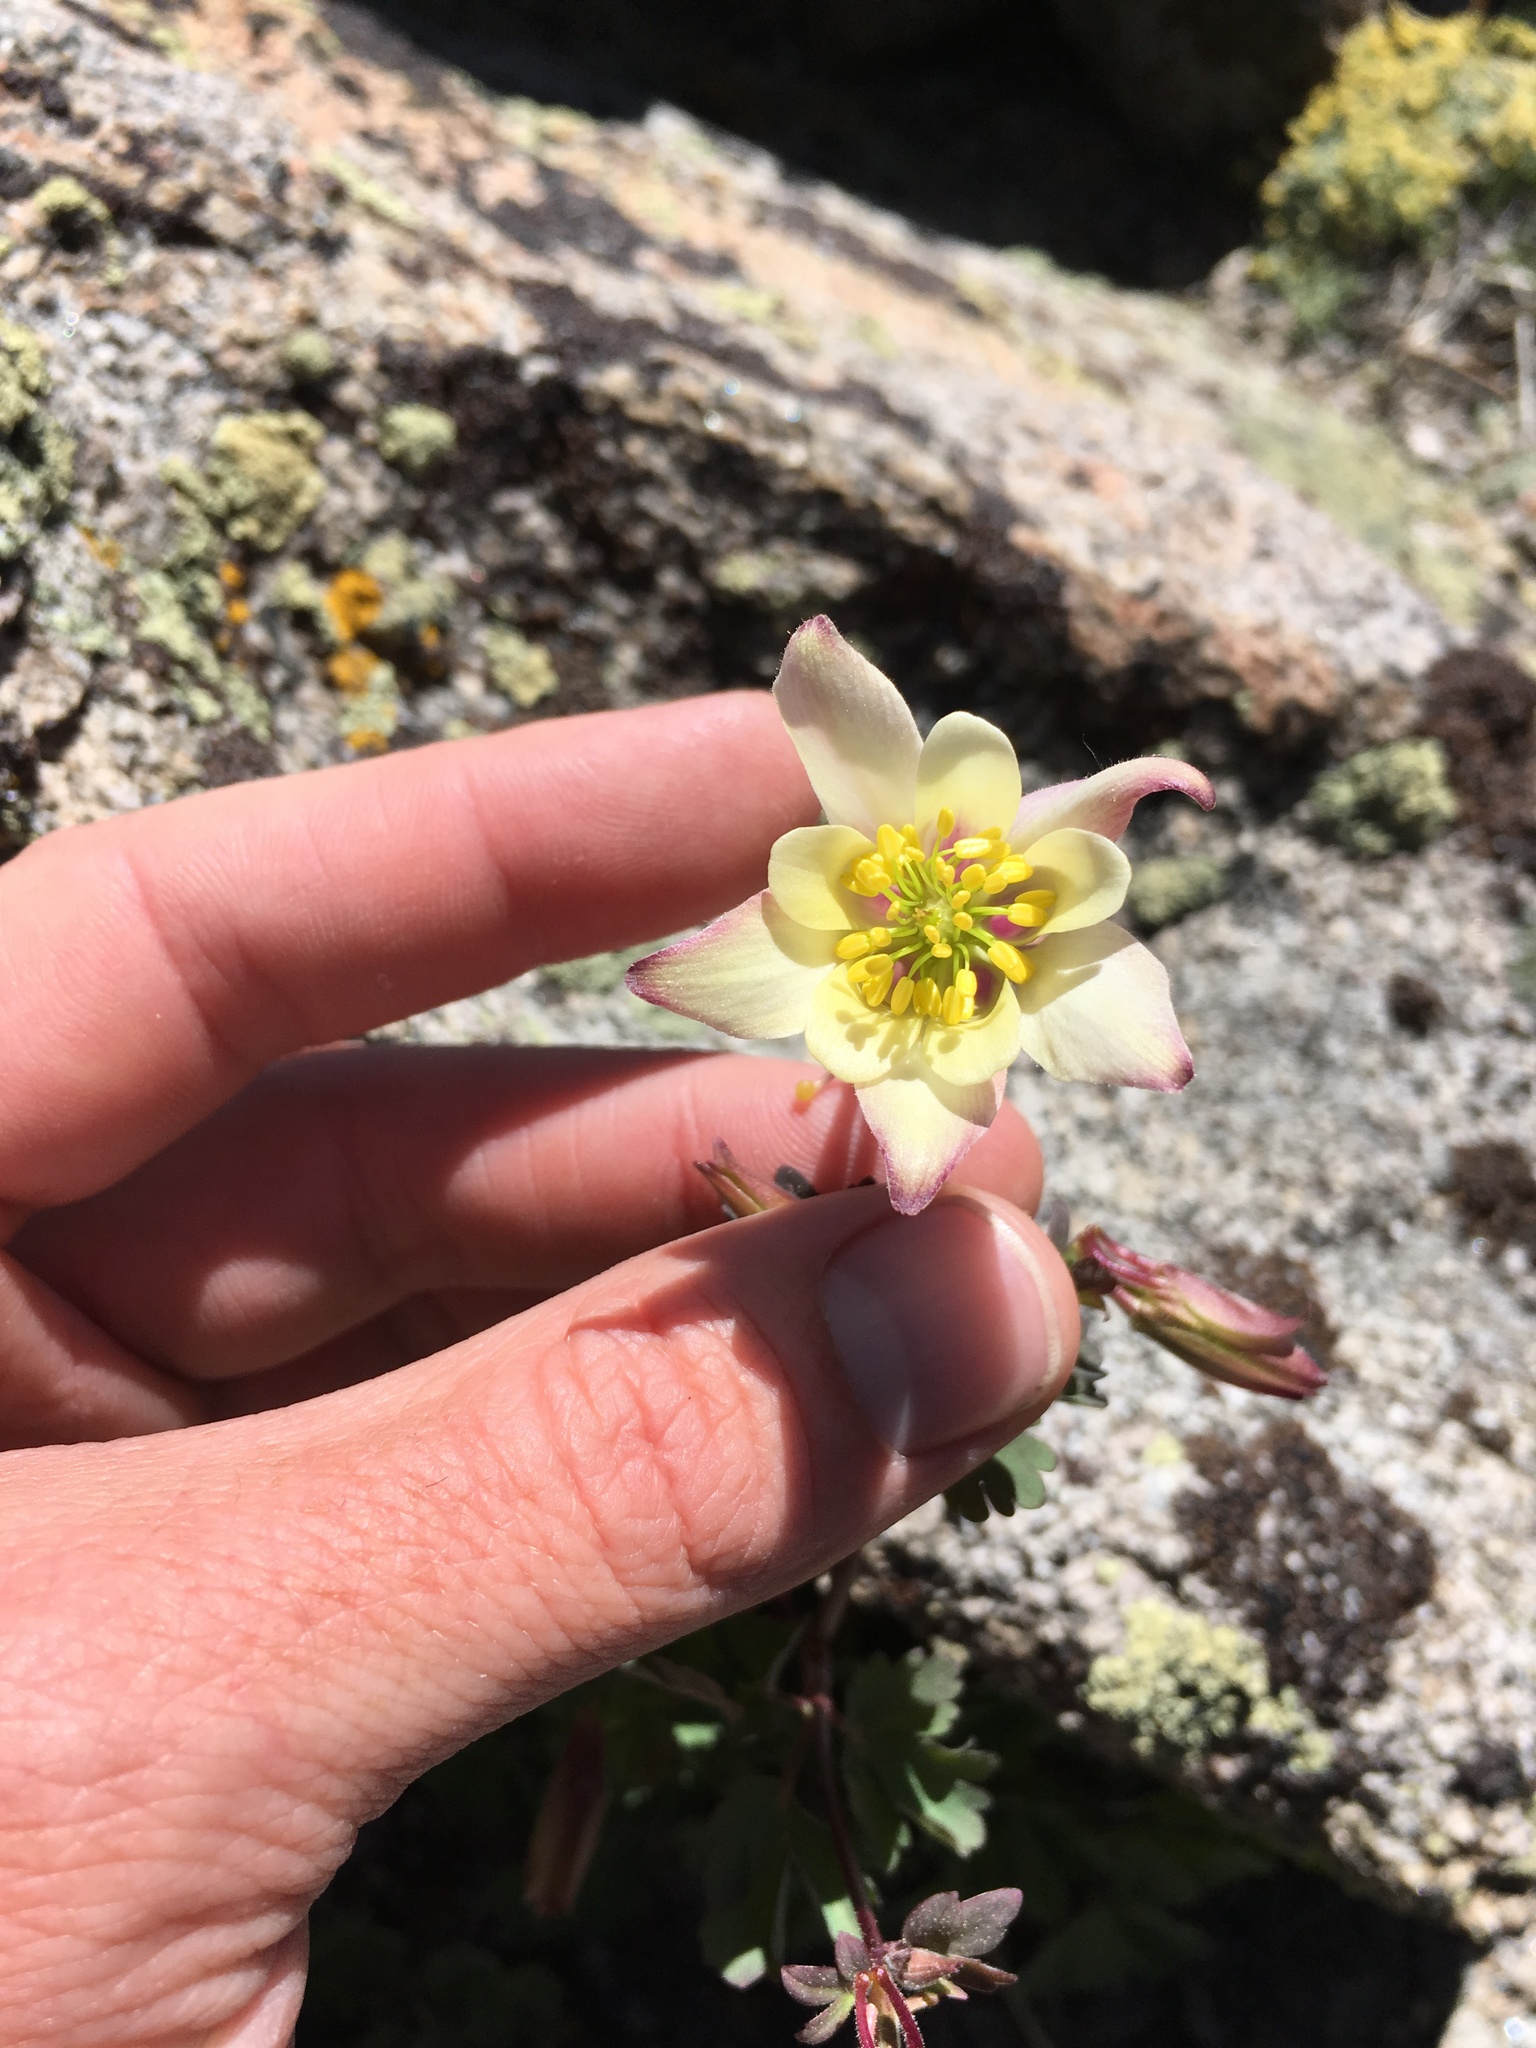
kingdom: Plantae
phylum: Tracheophyta
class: Magnoliopsida
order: Ranunculales
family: Ranunculaceae
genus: Aquilegia
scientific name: Aquilegia pubescens
